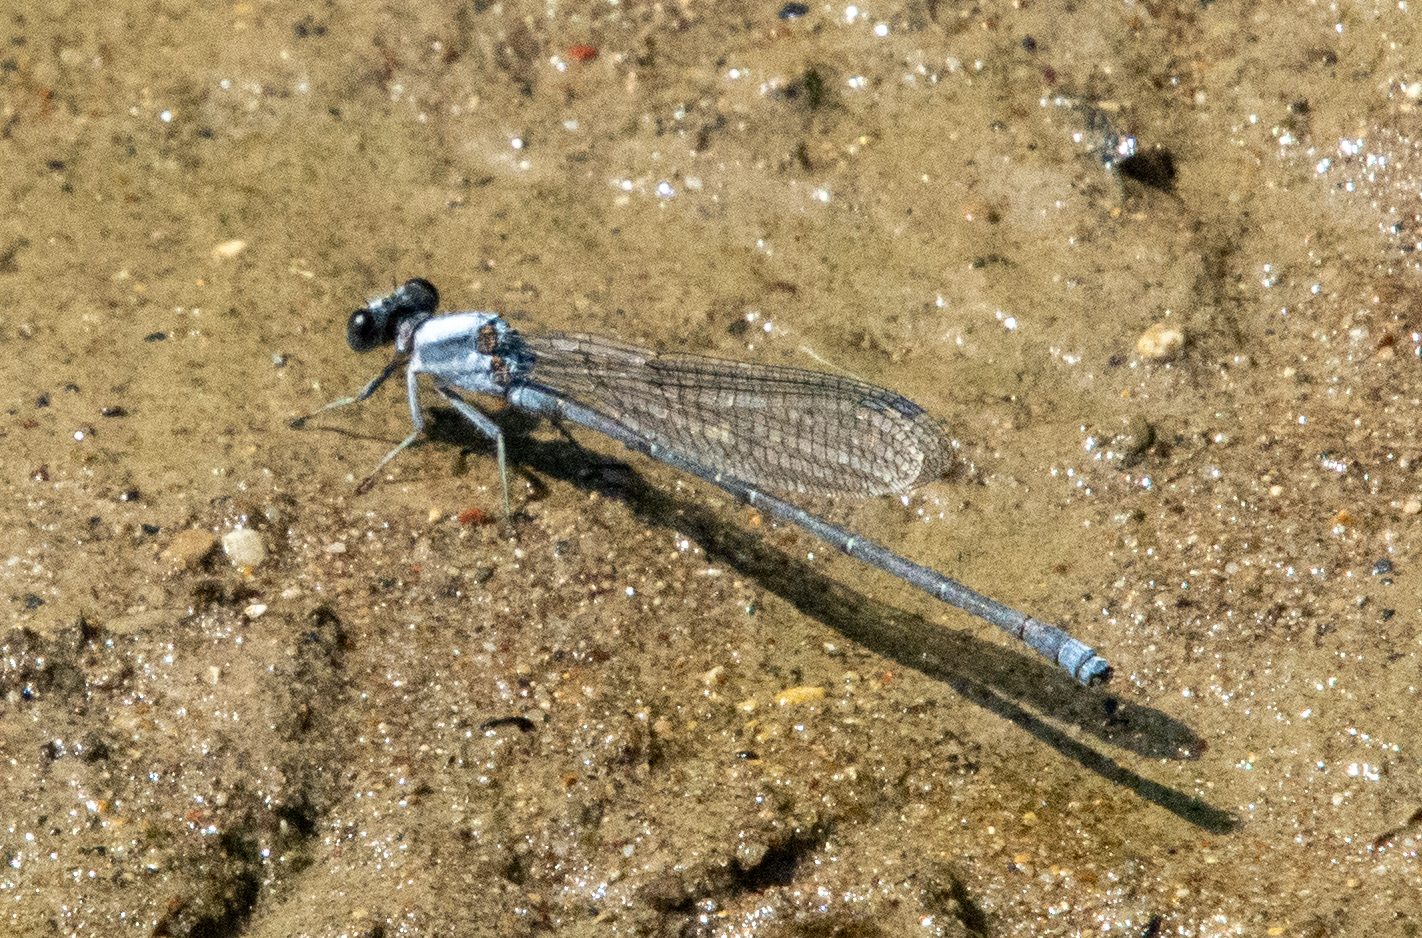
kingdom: Animalia
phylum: Arthropoda
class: Insecta
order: Odonata
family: Coenagrionidae
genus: Argia
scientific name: Argia moesta
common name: Powdered dancer
